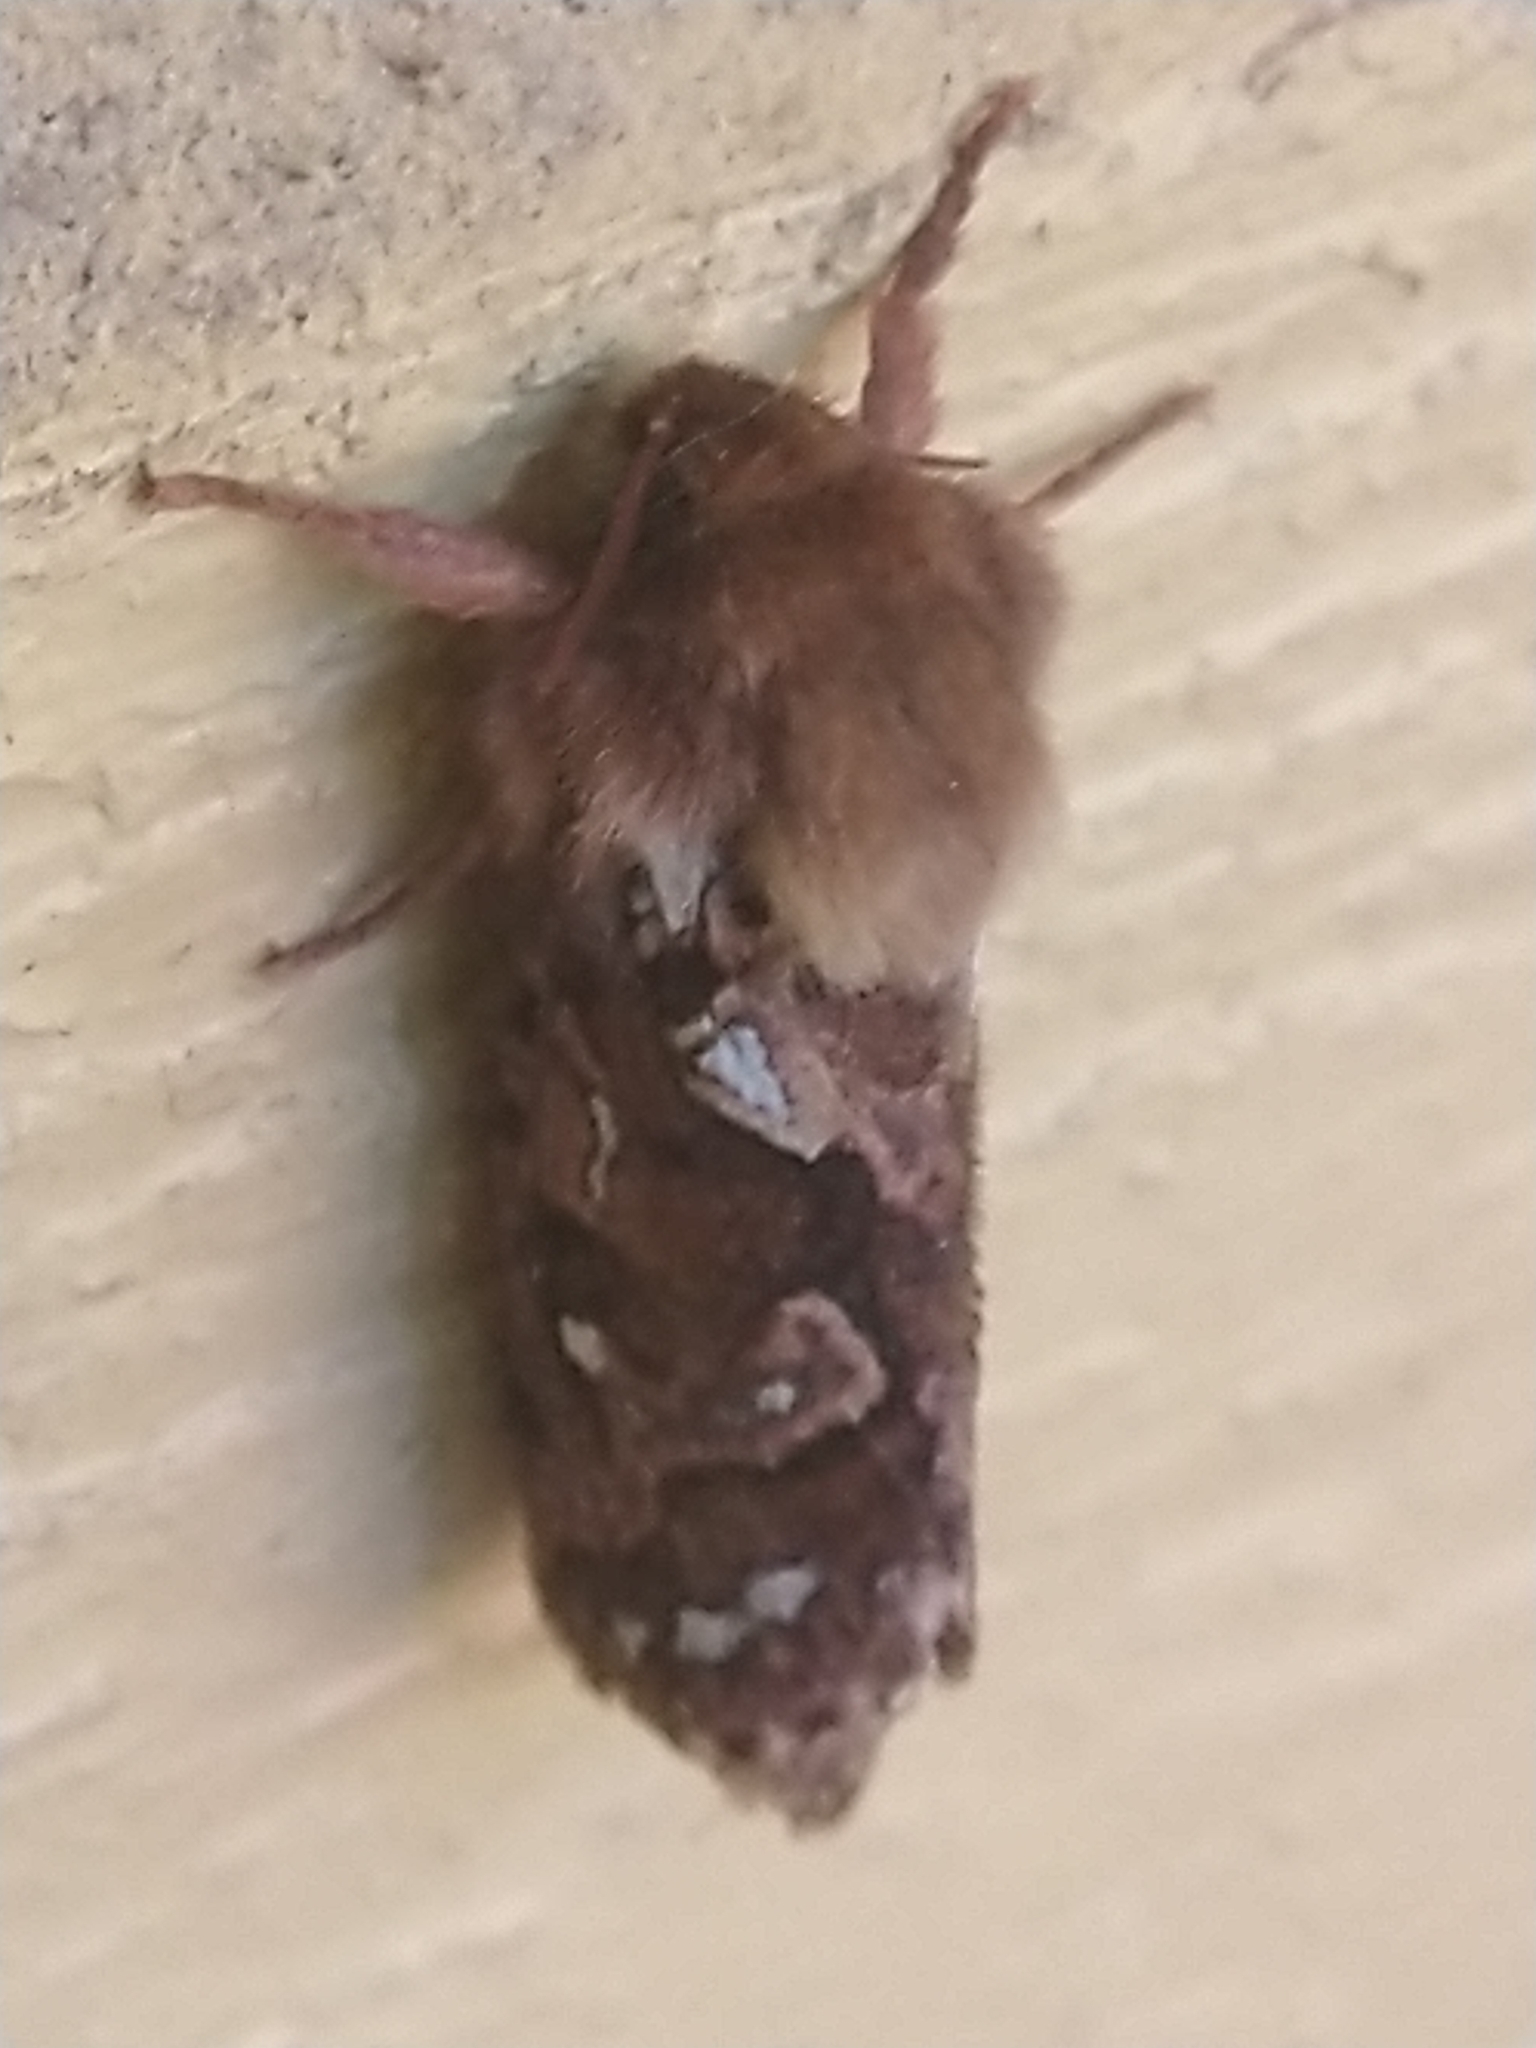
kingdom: Animalia
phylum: Arthropoda
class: Insecta
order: Lepidoptera
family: Hepialidae
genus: Korscheltellus
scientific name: Korscheltellus fusconebulosus
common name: Map-winged swift
